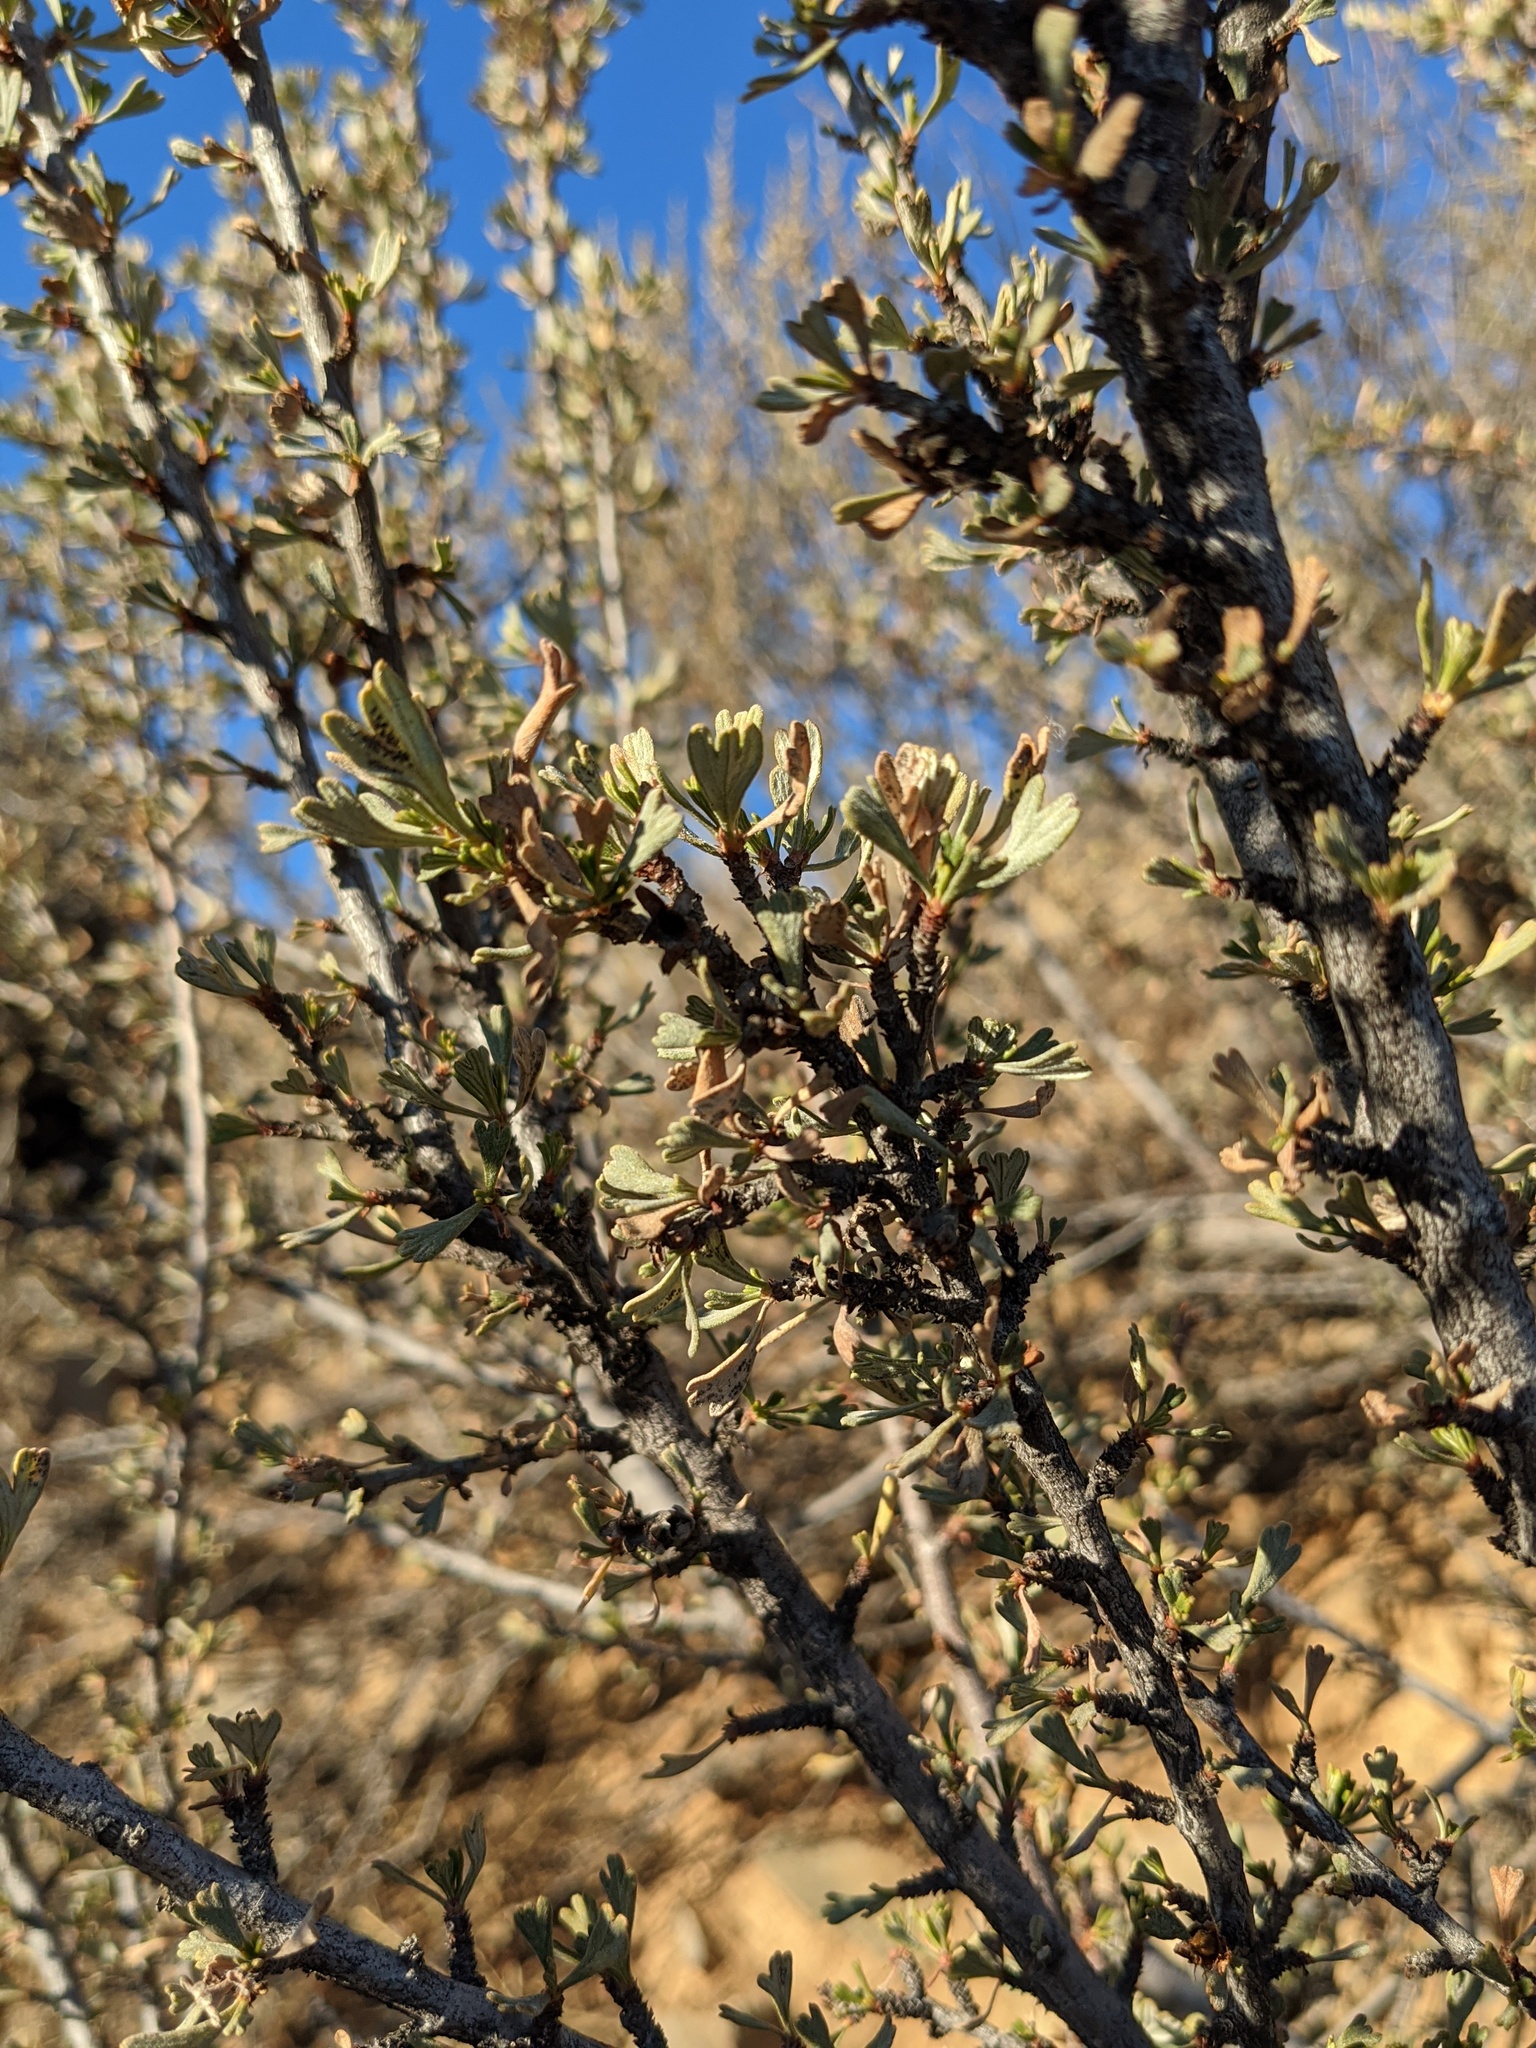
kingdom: Plantae
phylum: Tracheophyta
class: Magnoliopsida
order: Rosales
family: Rosaceae
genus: Purshia
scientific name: Purshia tridentata
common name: Antelope bitterbrush
